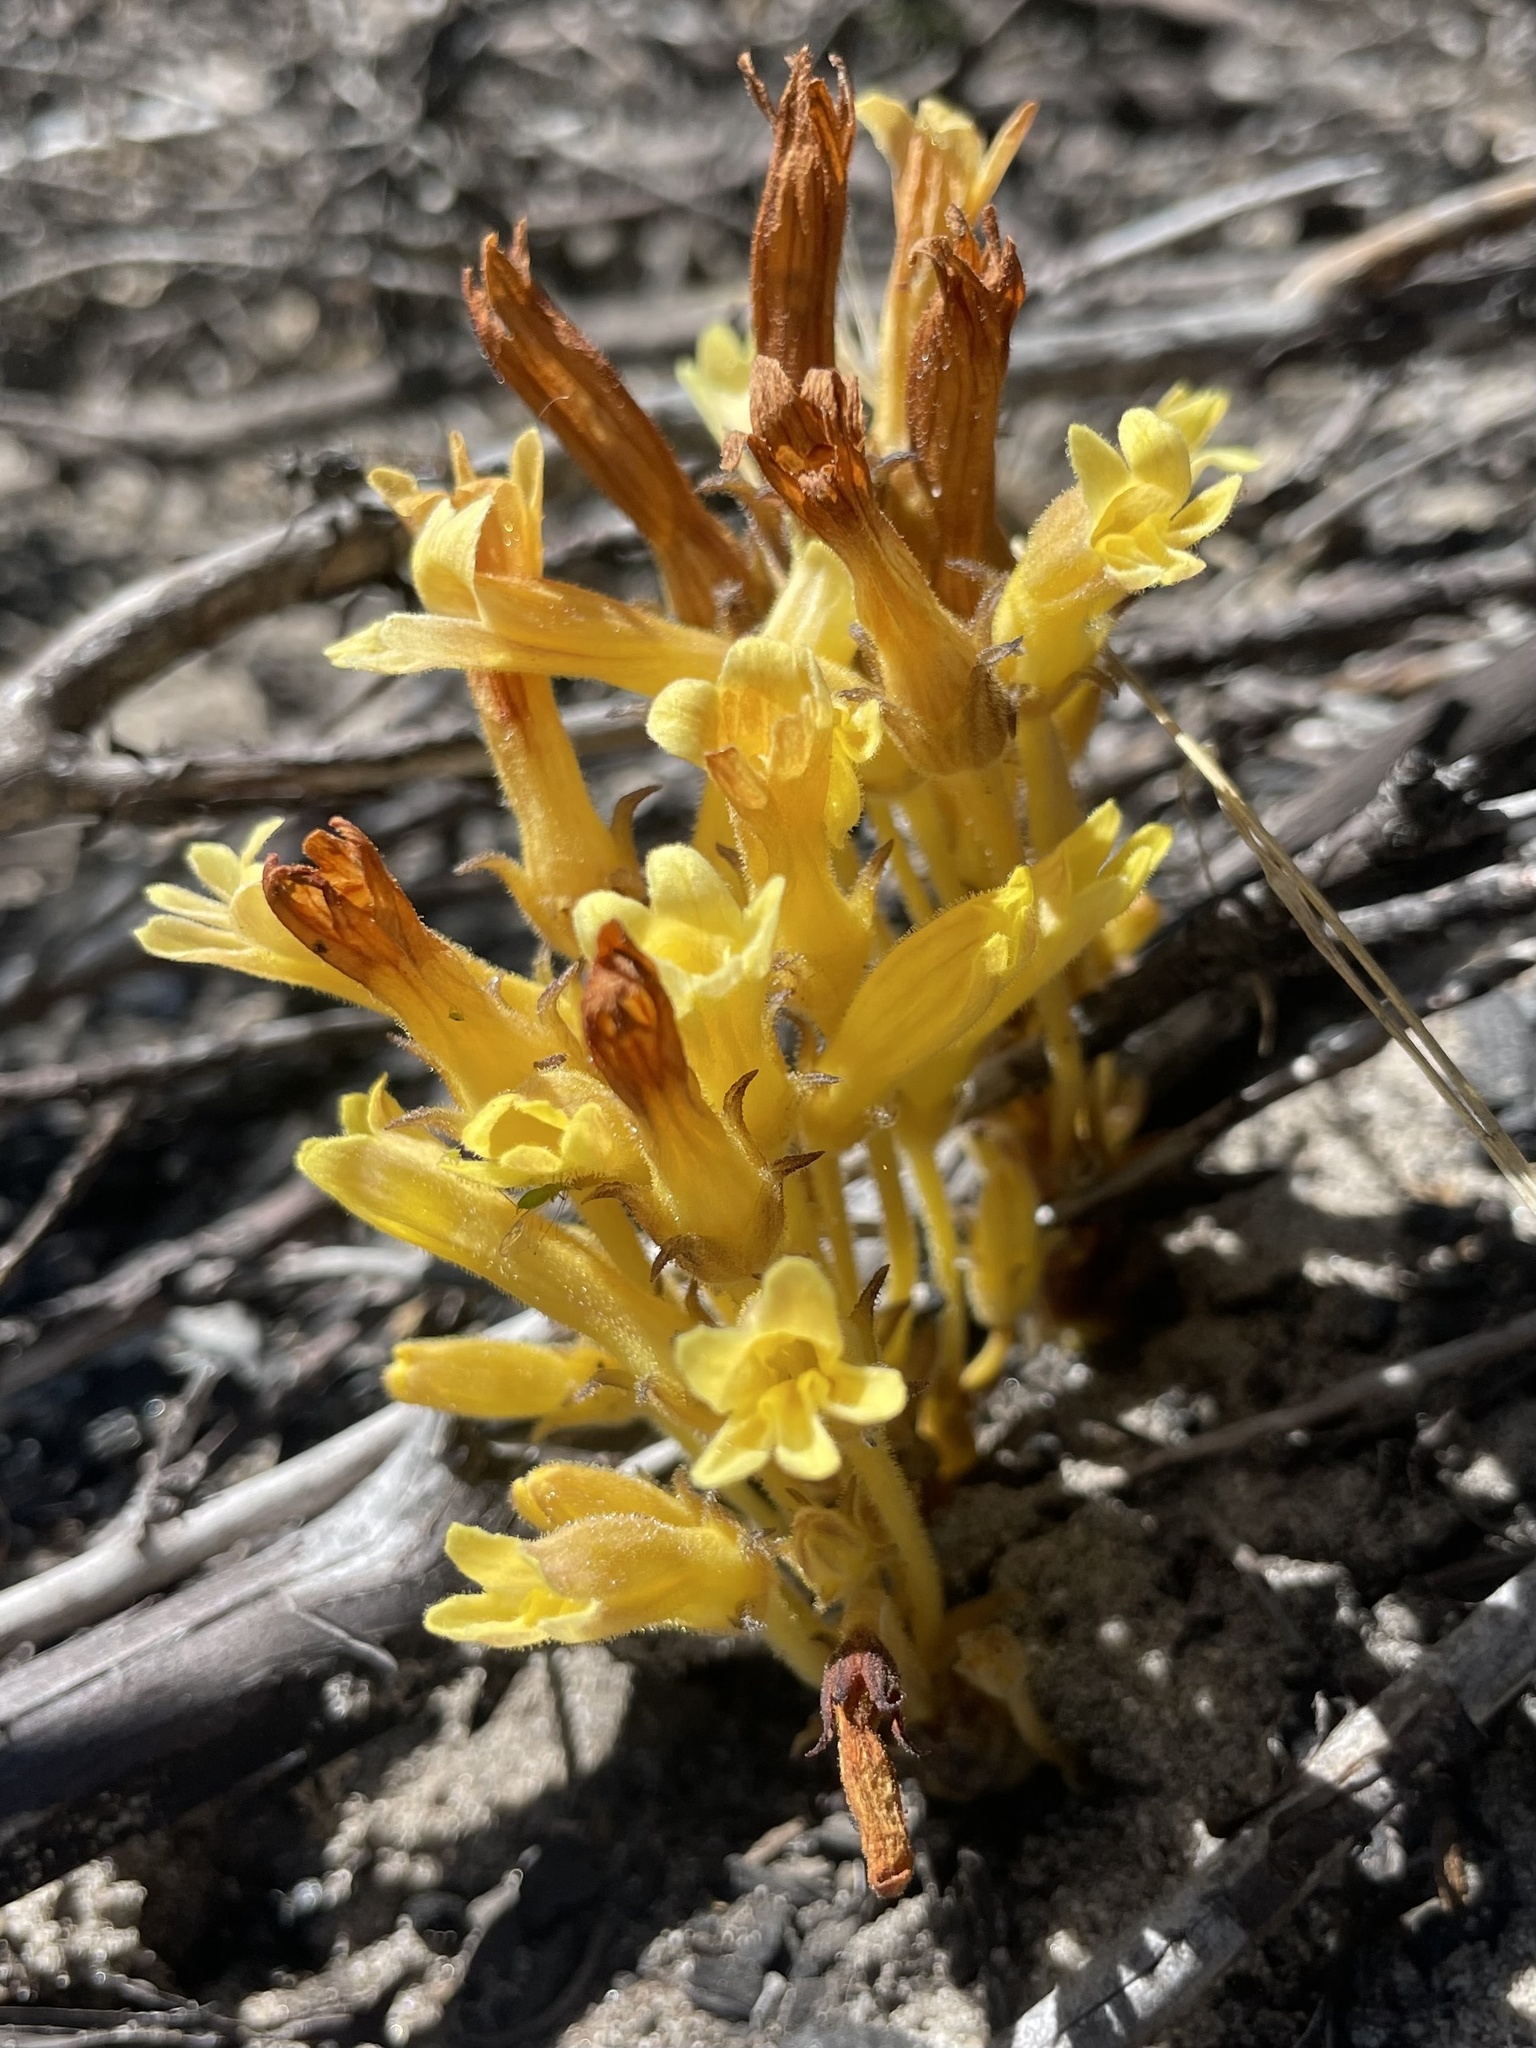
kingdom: Plantae
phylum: Tracheophyta
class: Magnoliopsida
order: Lamiales
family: Orobanchaceae
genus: Aphyllon
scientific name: Aphyllon franciscanum
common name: San francisco broomrape
